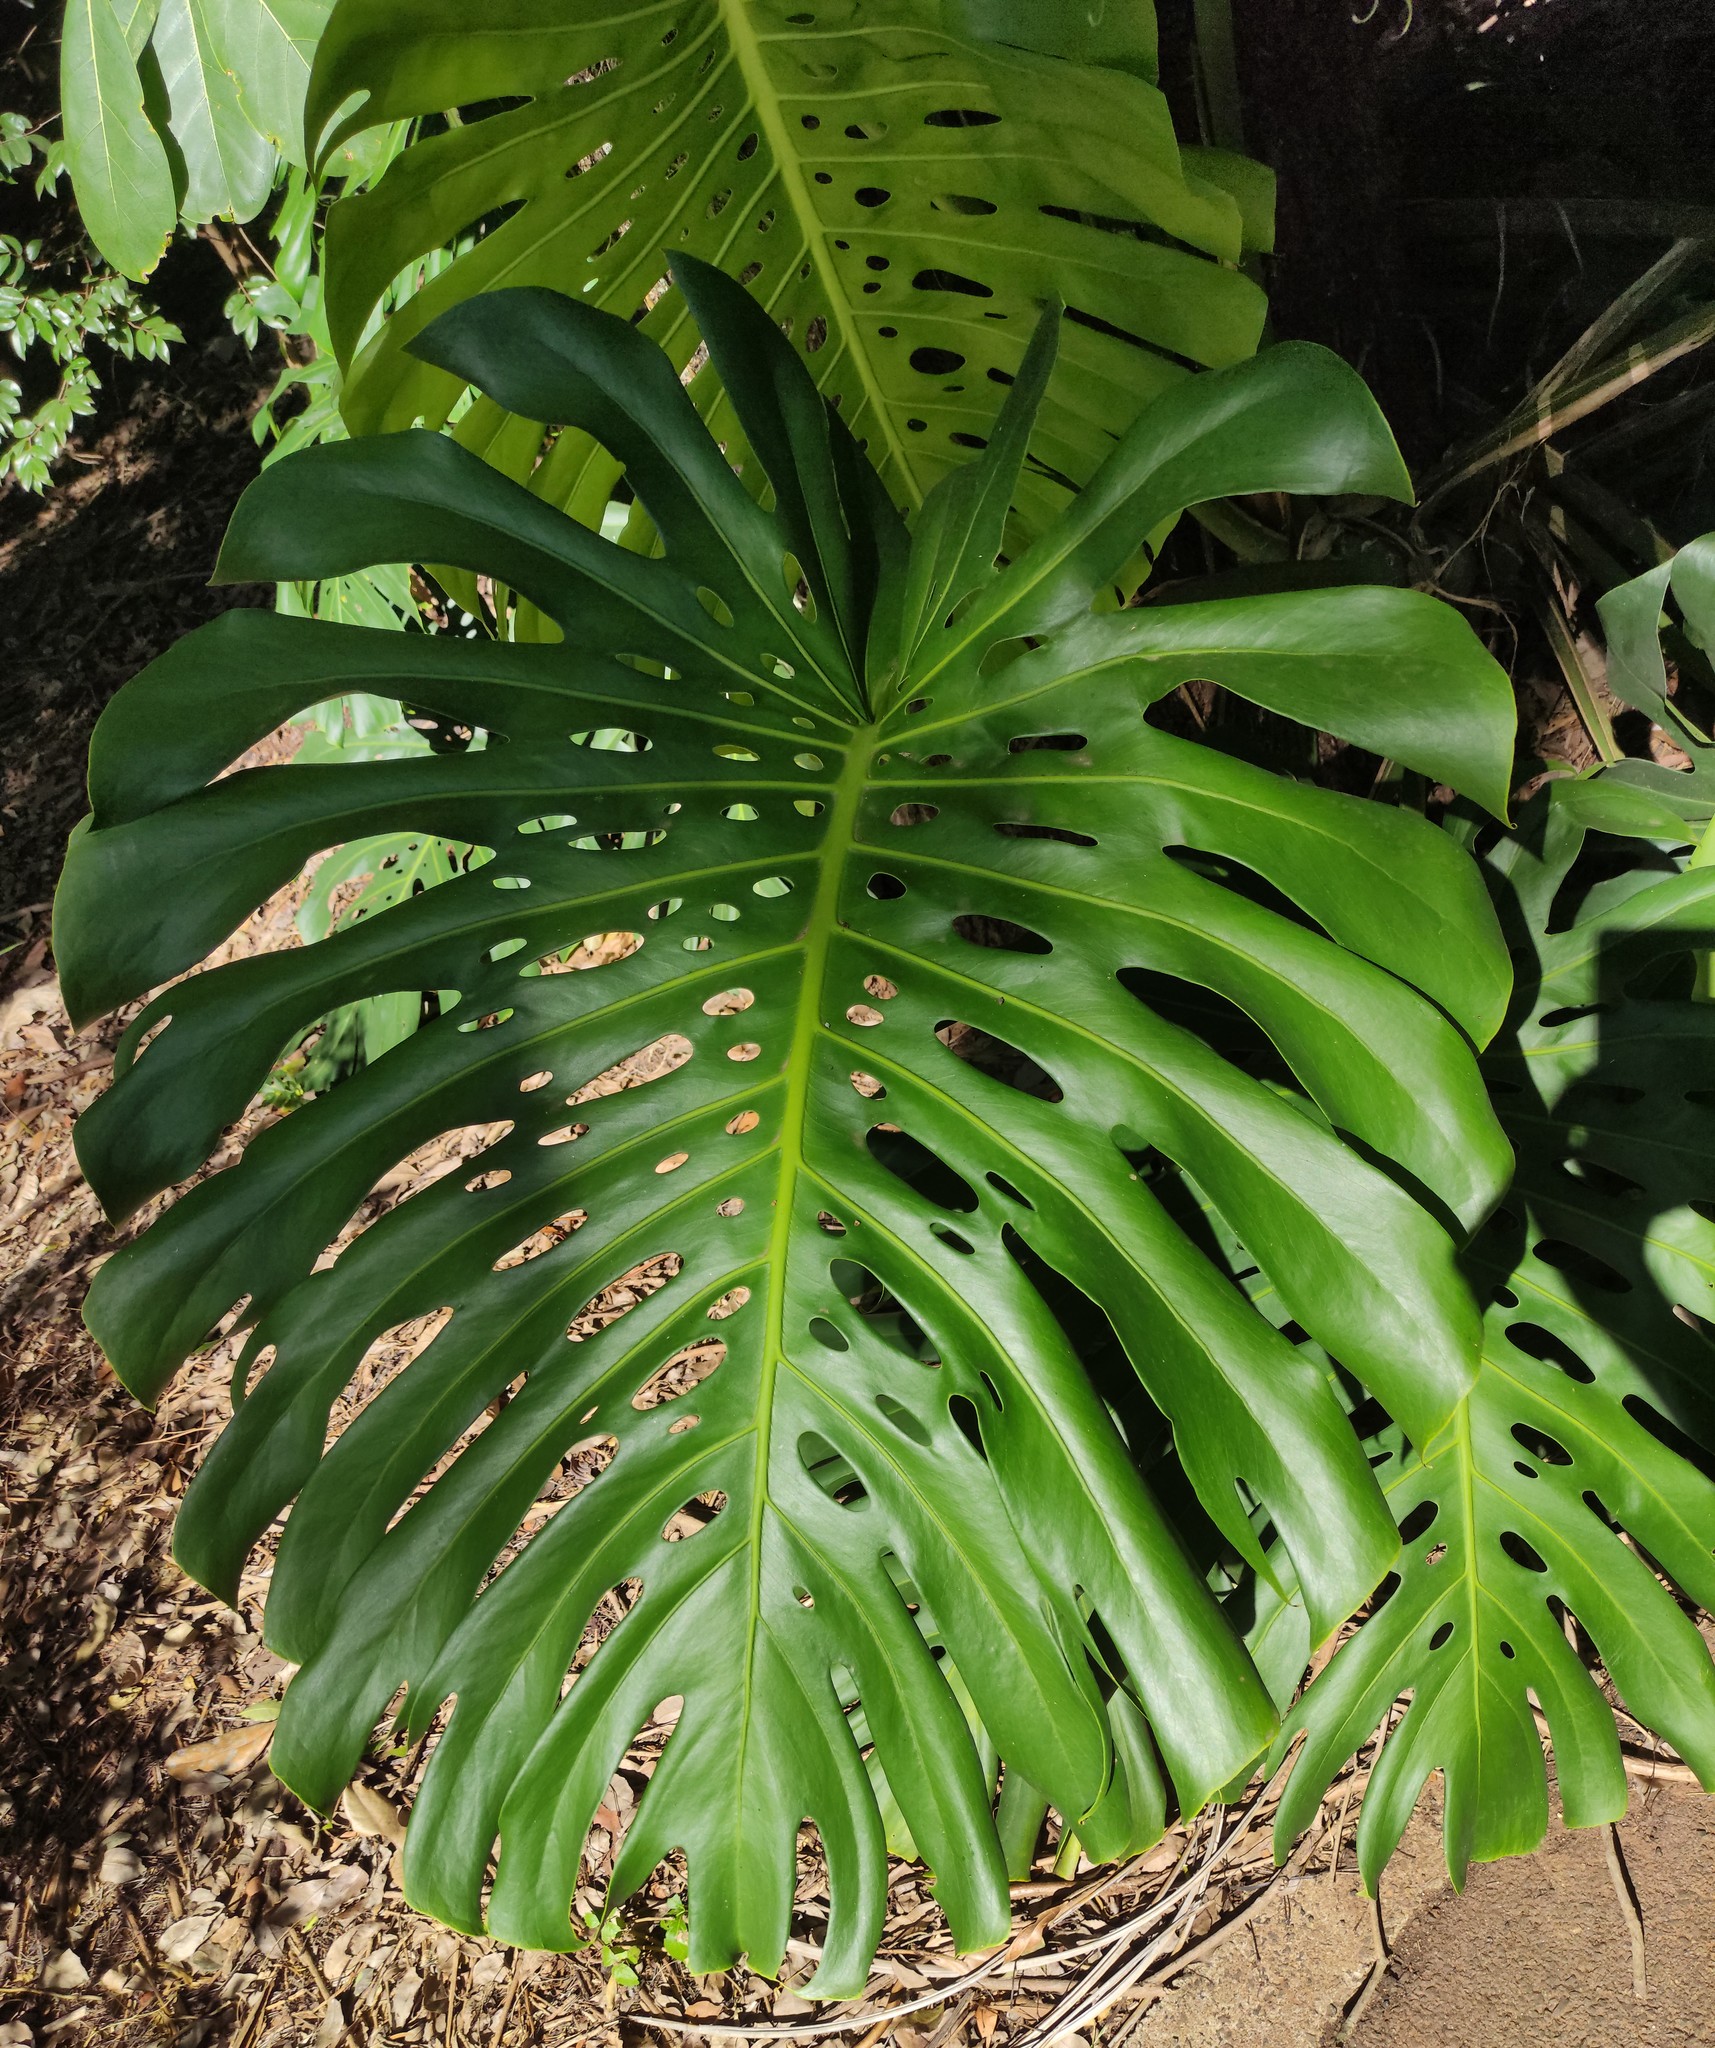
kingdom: Plantae
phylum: Tracheophyta
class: Liliopsida
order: Alismatales
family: Araceae
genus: Monstera
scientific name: Monstera deliciosa
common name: Cut-leaf-philodendron
